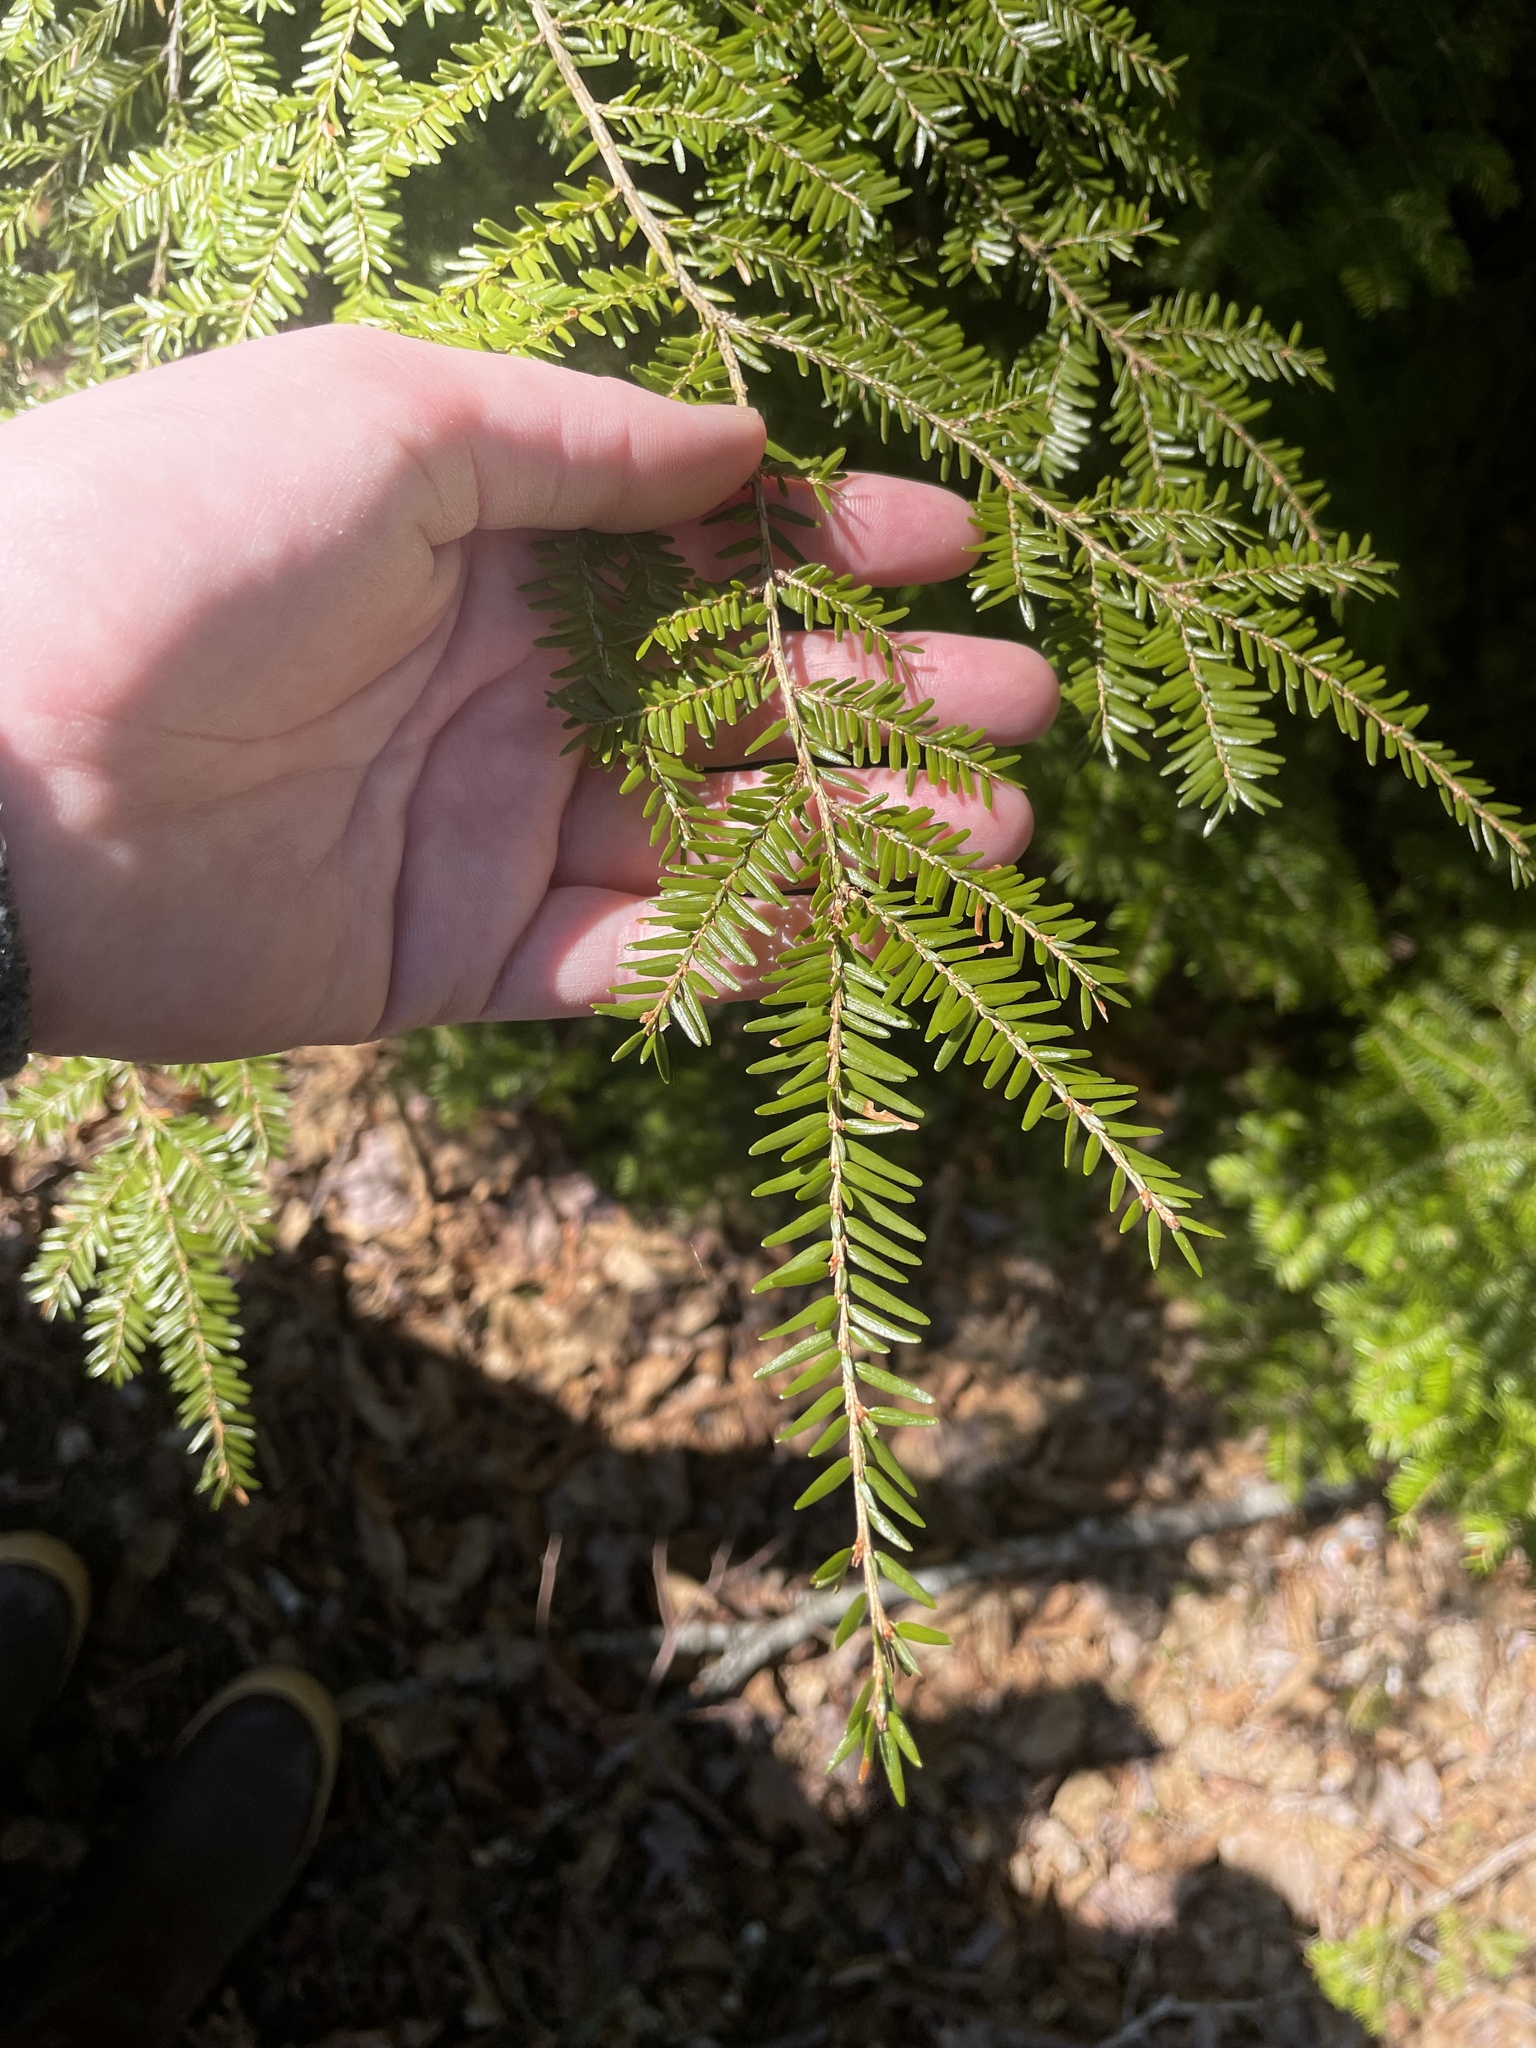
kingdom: Plantae
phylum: Tracheophyta
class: Pinopsida
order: Pinales
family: Pinaceae
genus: Tsuga
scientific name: Tsuga canadensis
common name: Eastern hemlock
